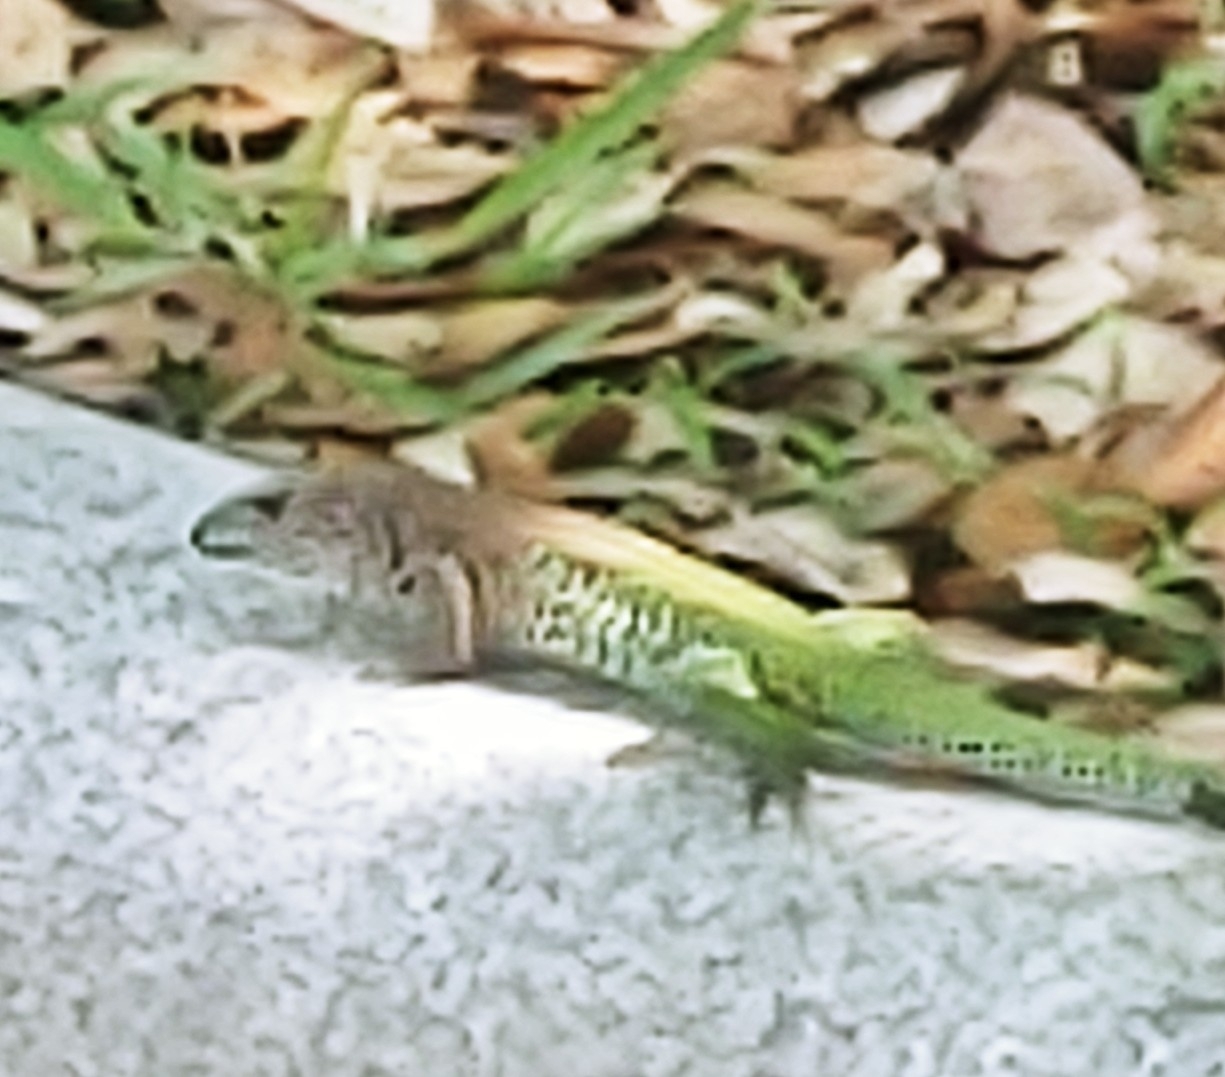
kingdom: Animalia
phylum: Chordata
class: Squamata
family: Teiidae
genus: Ameiva
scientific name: Ameiva ameiva
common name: Giant ameiva
